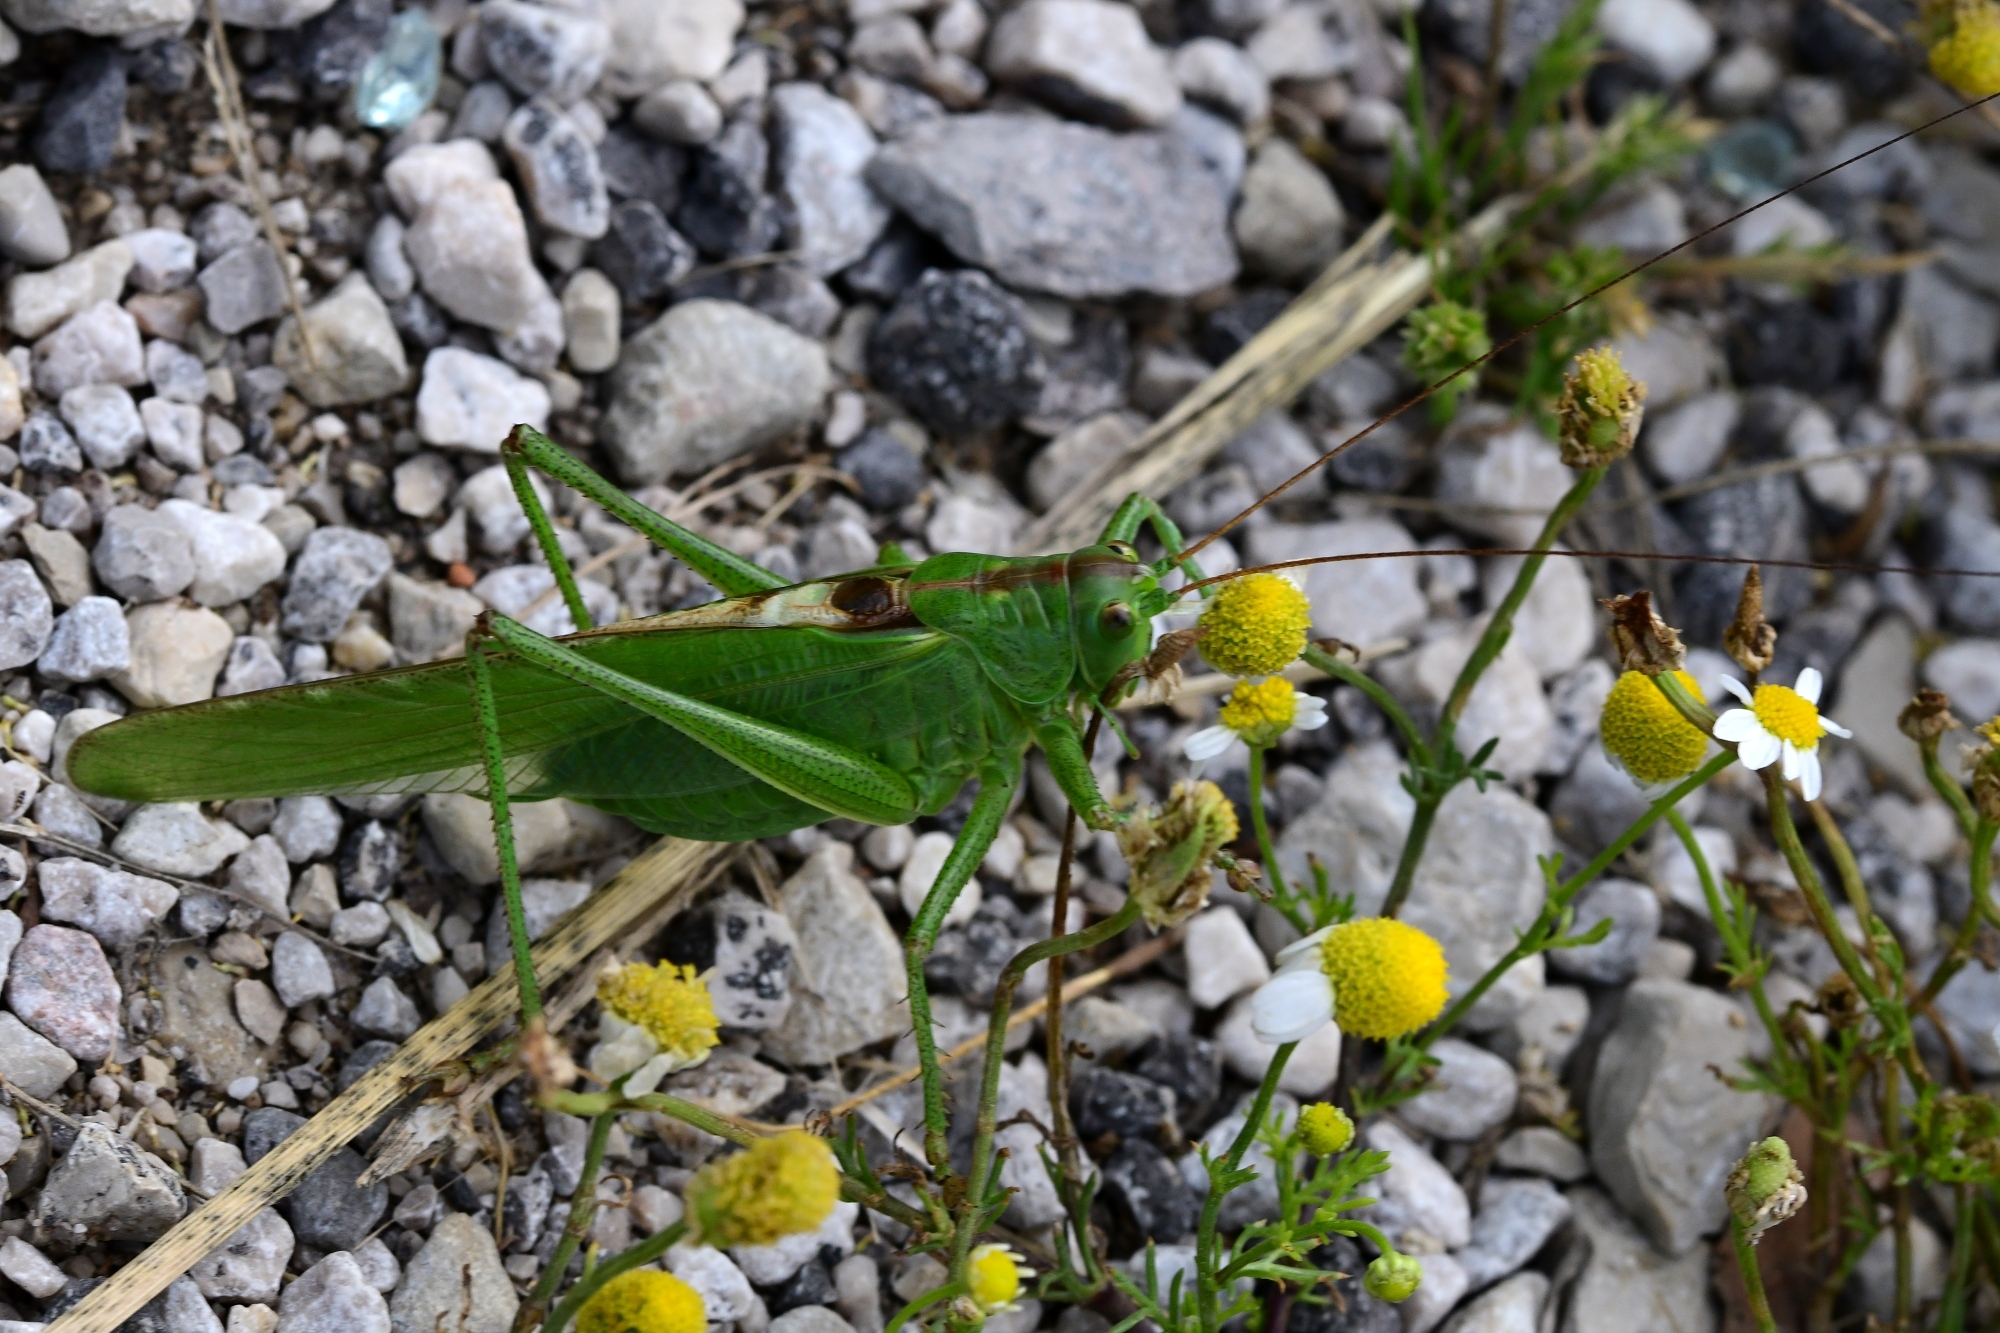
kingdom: Animalia
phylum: Arthropoda
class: Insecta
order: Orthoptera
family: Tettigoniidae
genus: Tettigonia
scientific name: Tettigonia viridissima
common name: Great green bush-cricket
